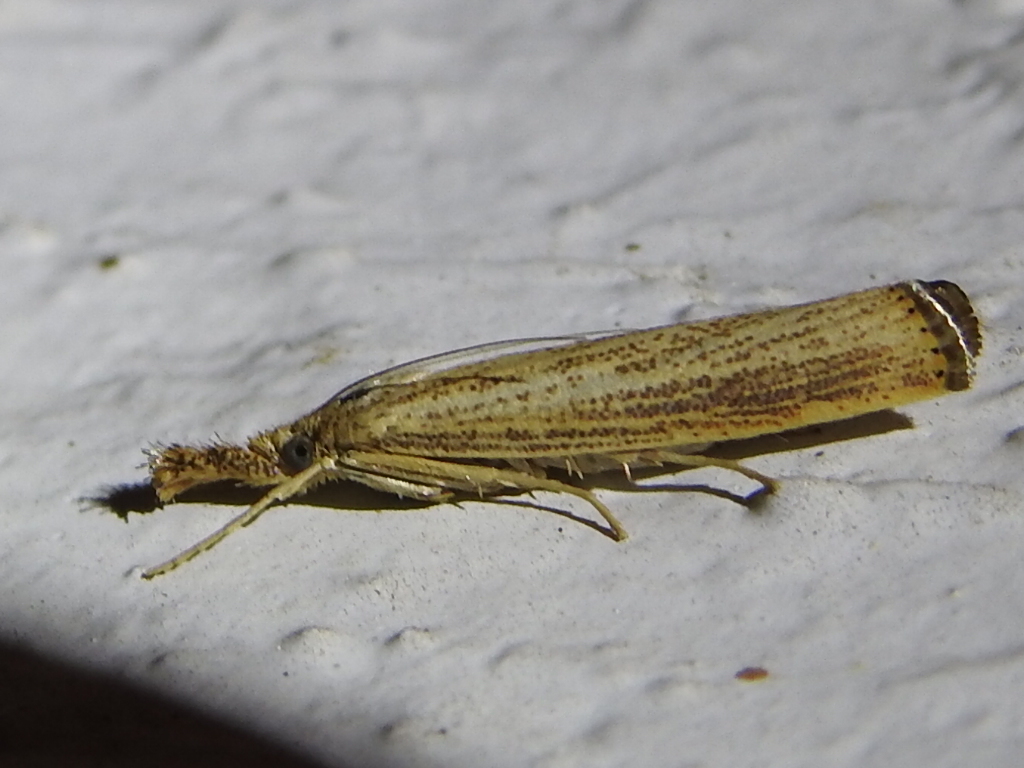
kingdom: Animalia
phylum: Arthropoda
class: Insecta
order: Lepidoptera
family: Crambidae
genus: Agriphila
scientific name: Agriphila vulgivagellus
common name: Vagabond crambus moth
